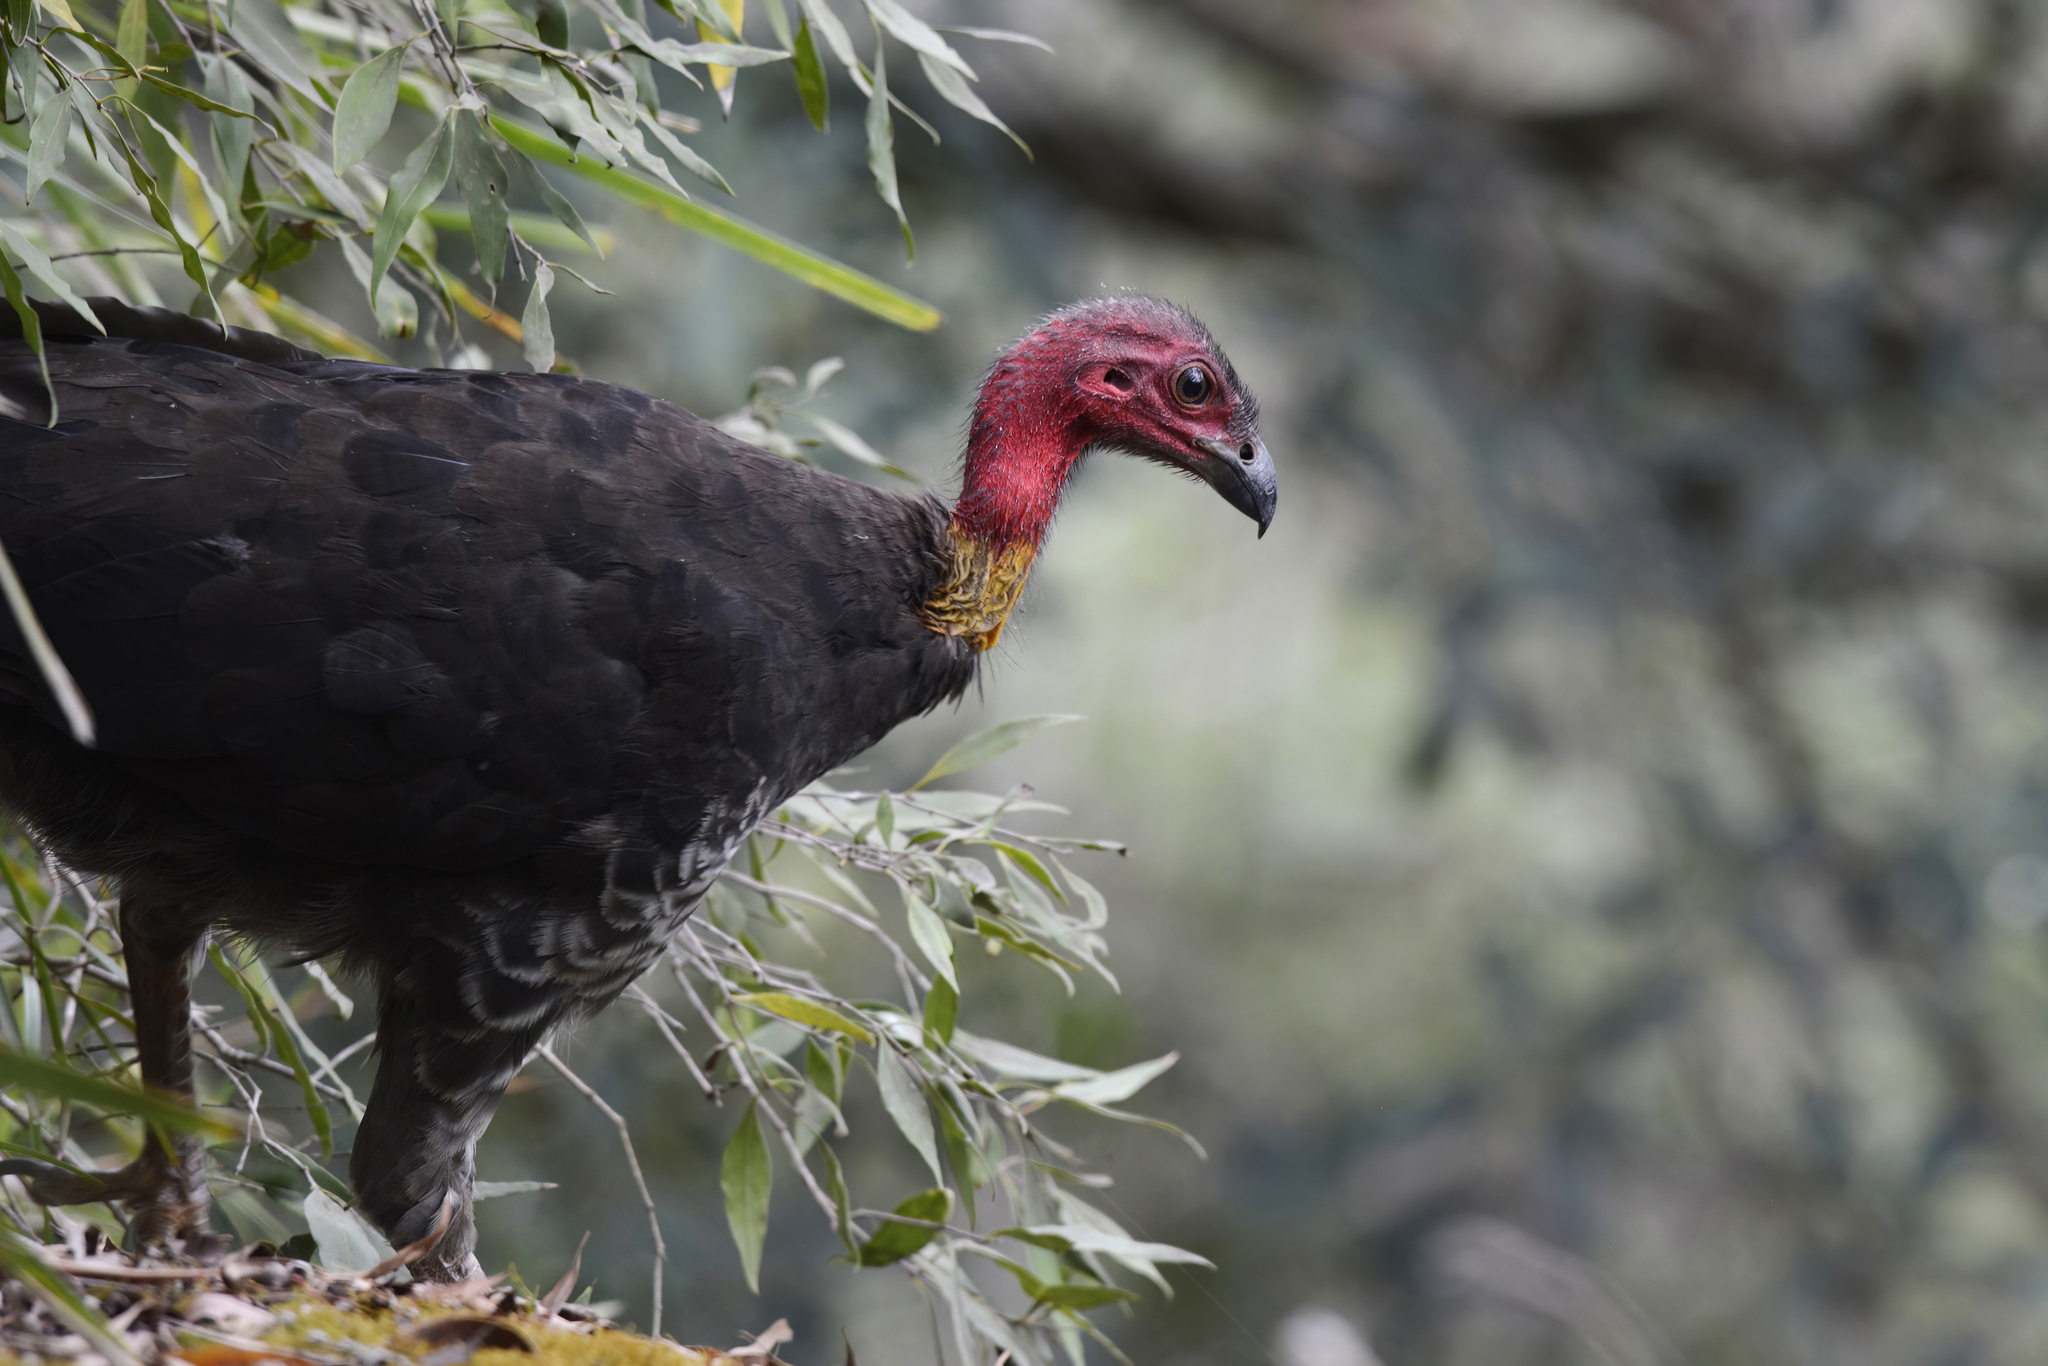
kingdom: Animalia
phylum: Chordata
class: Aves
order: Galliformes
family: Megapodiidae
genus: Alectura
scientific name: Alectura lathami
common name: Australian brushturkey
